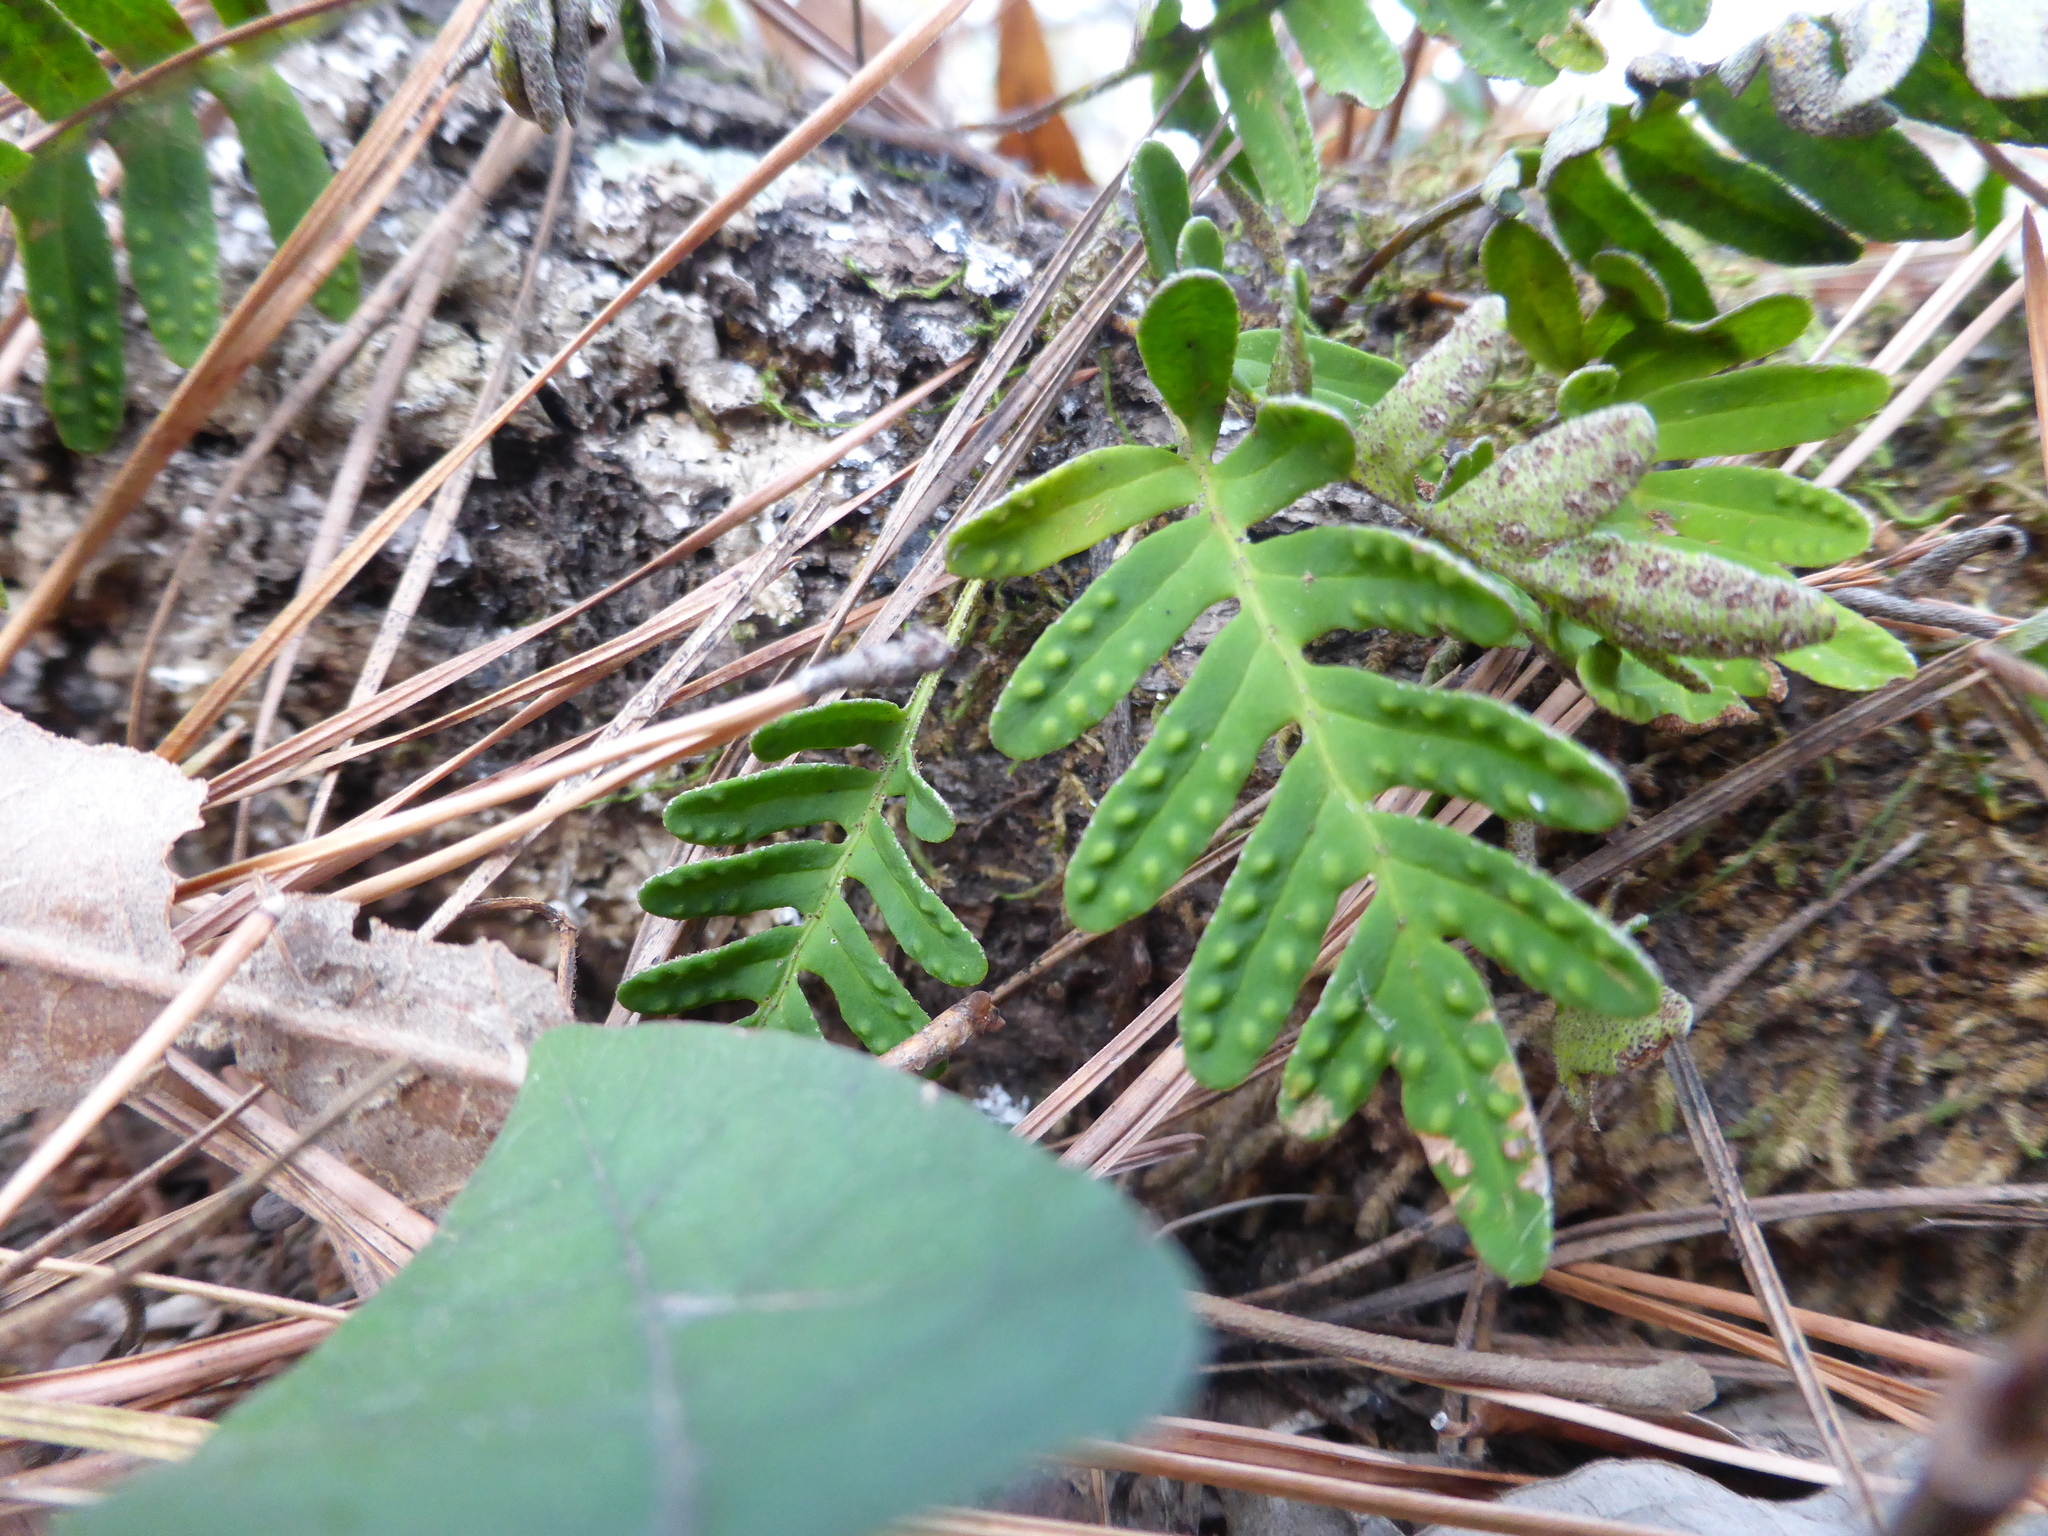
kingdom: Plantae
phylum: Tracheophyta
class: Polypodiopsida
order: Polypodiales
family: Polypodiaceae
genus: Pleopeltis
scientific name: Pleopeltis michauxiana
